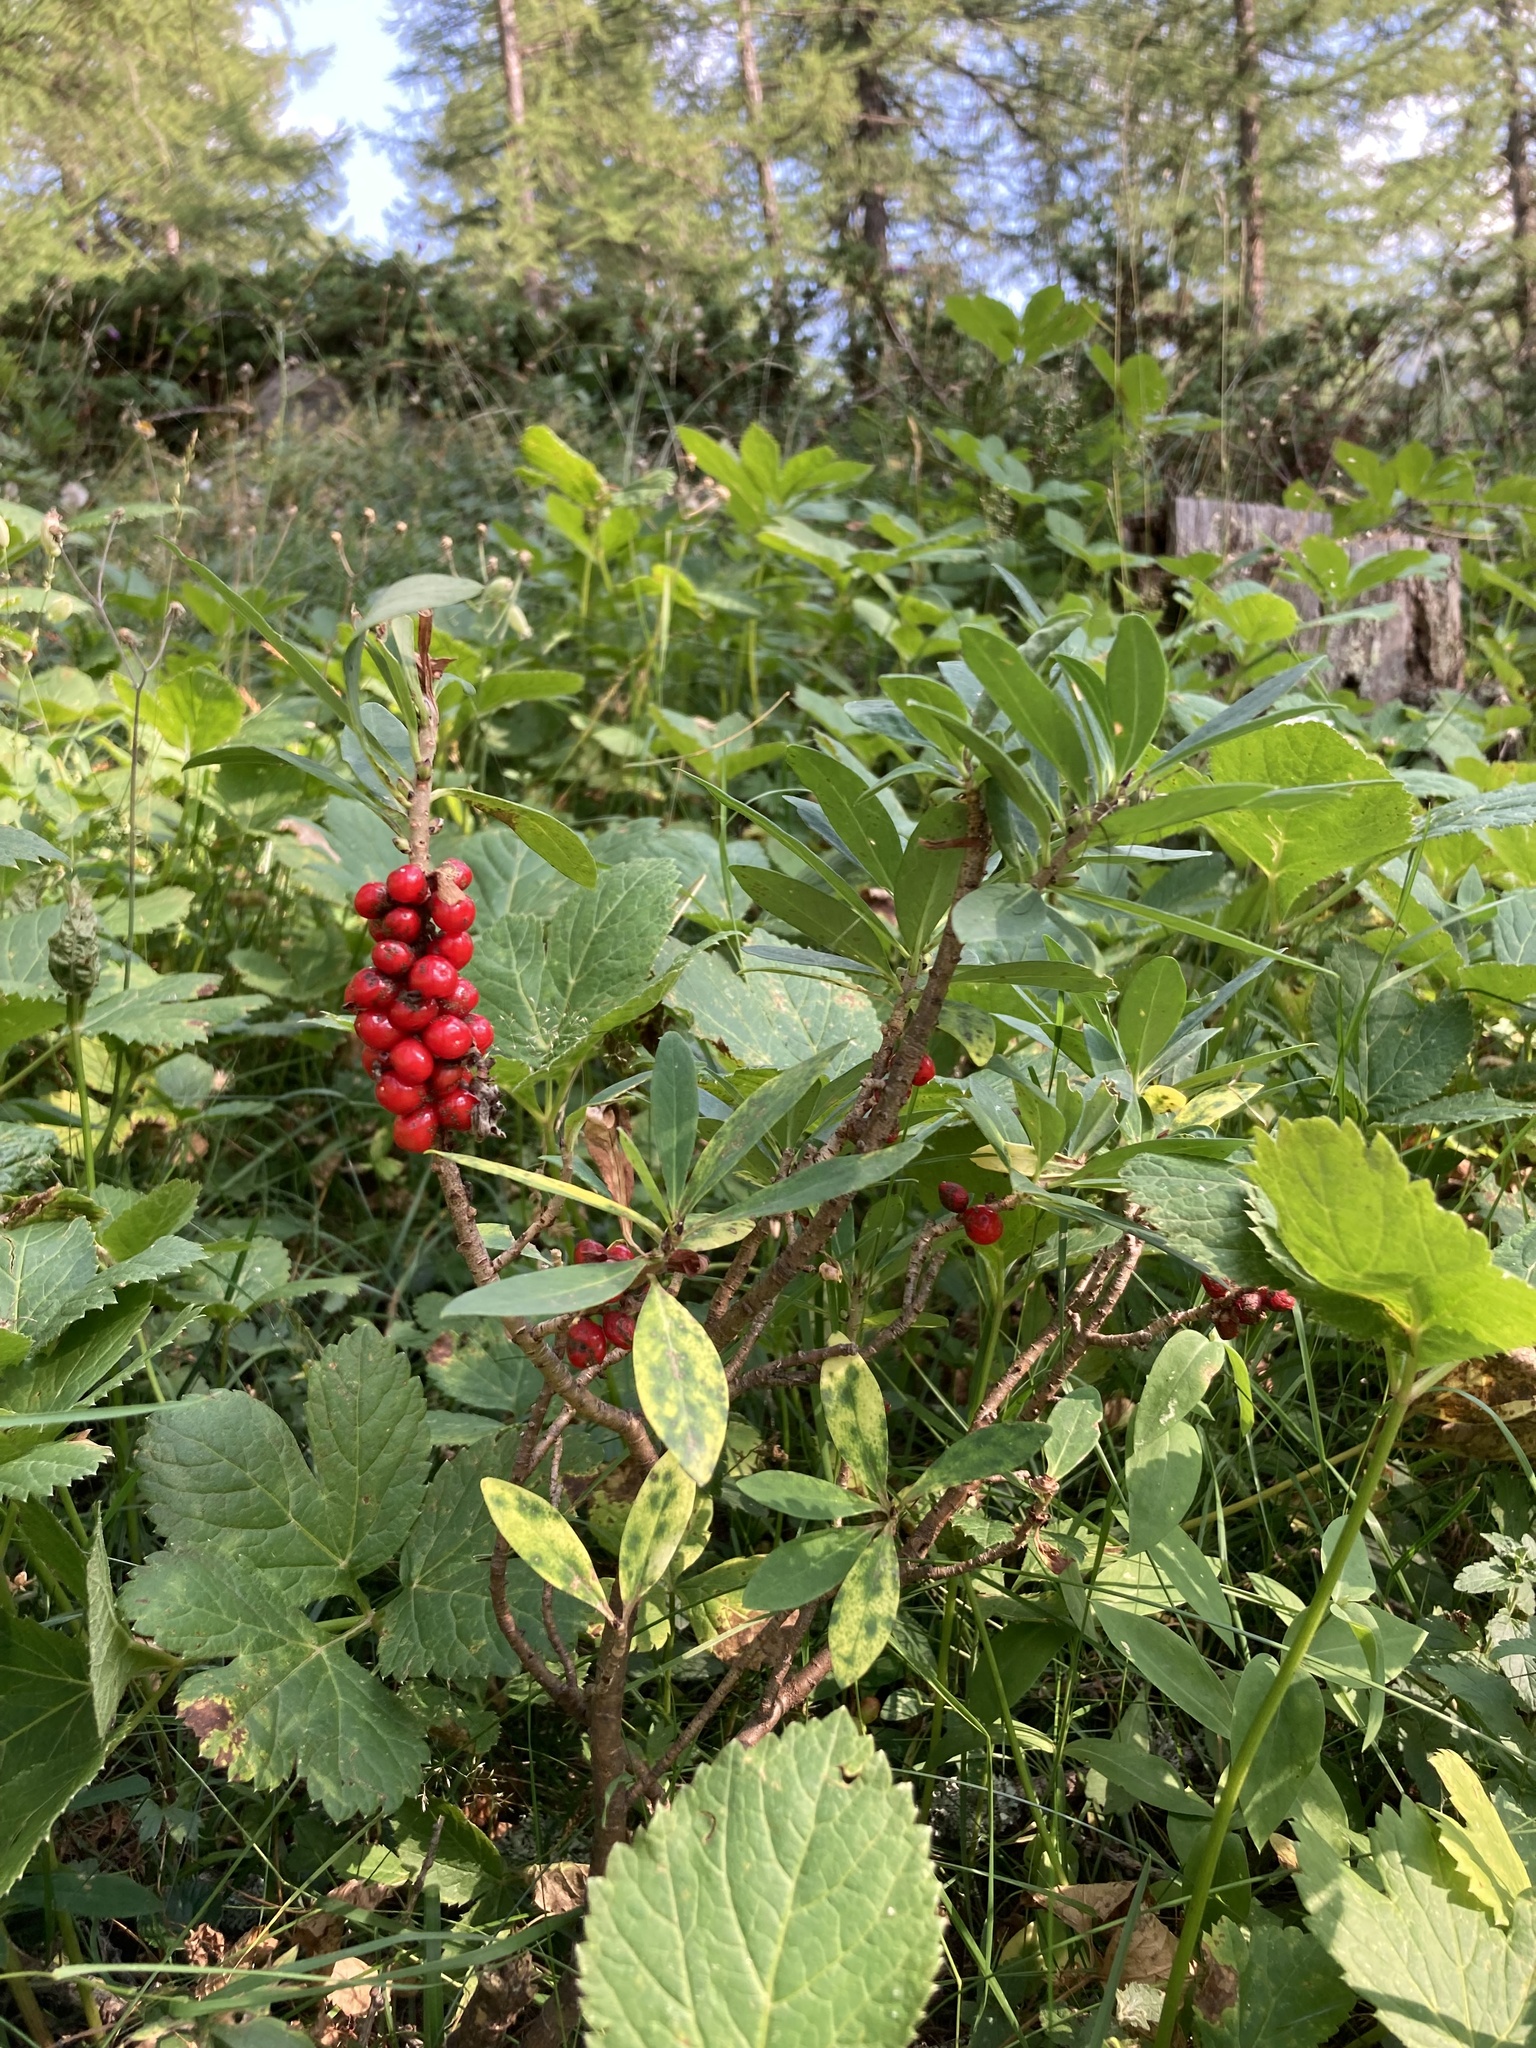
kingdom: Plantae
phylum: Tracheophyta
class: Magnoliopsida
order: Malvales
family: Thymelaeaceae
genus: Daphne
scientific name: Daphne mezereum
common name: Mezereon
